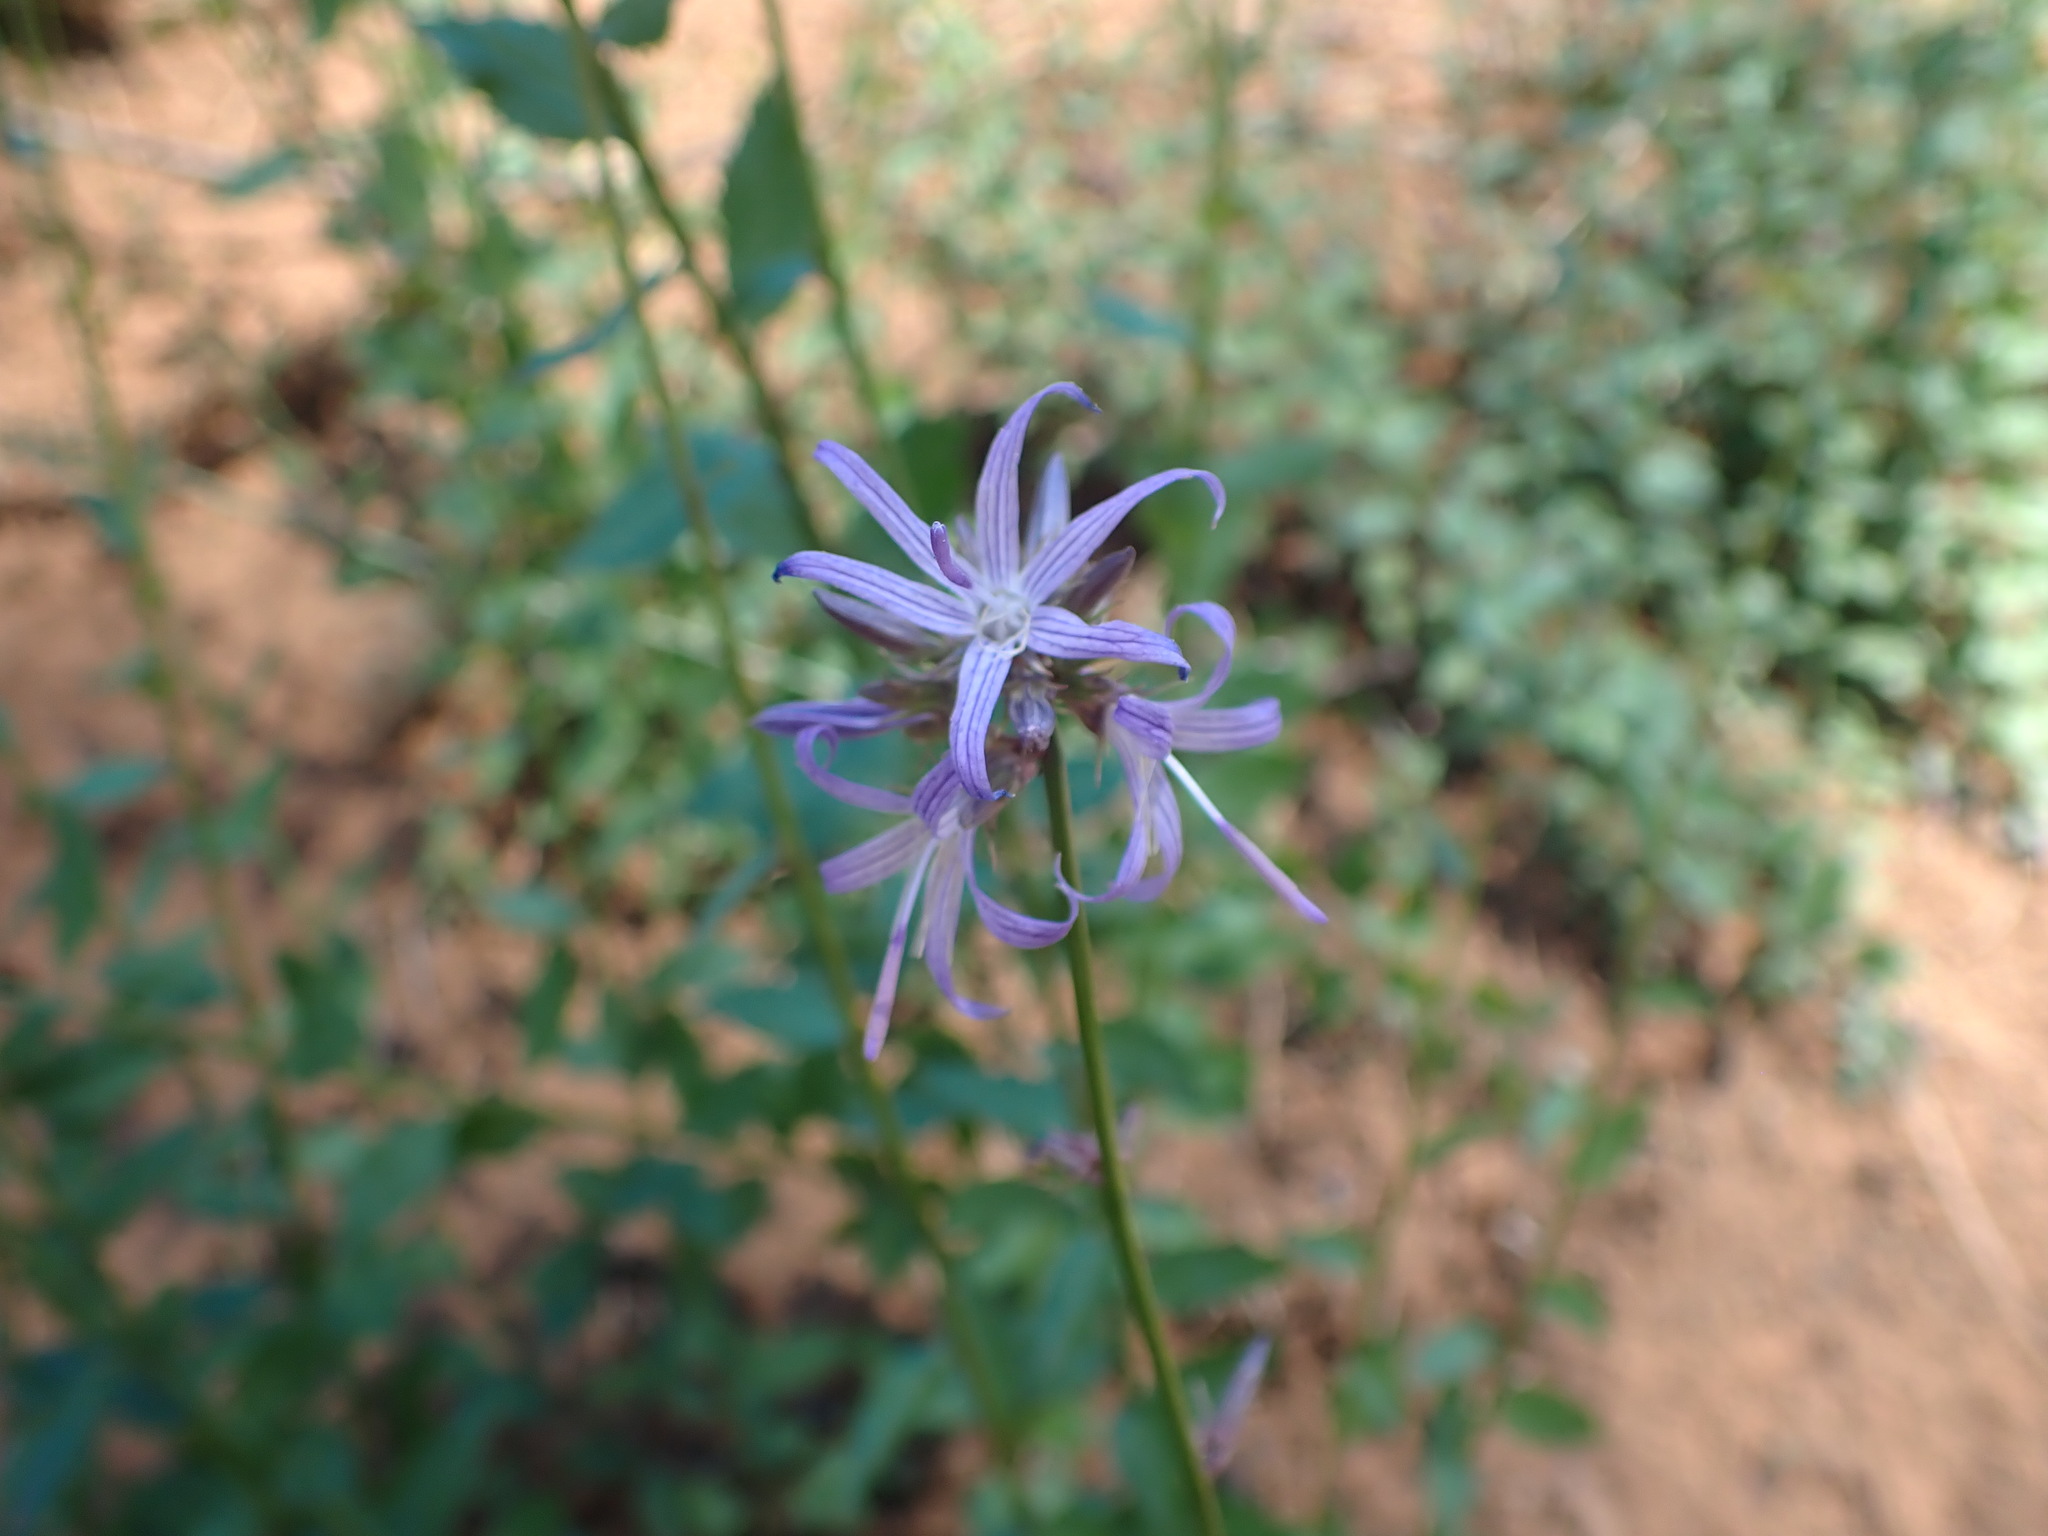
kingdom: Plantae
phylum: Tracheophyta
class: Magnoliopsida
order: Asterales
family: Campanulaceae
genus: Smithiastrum
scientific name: Smithiastrum prenanthoides
